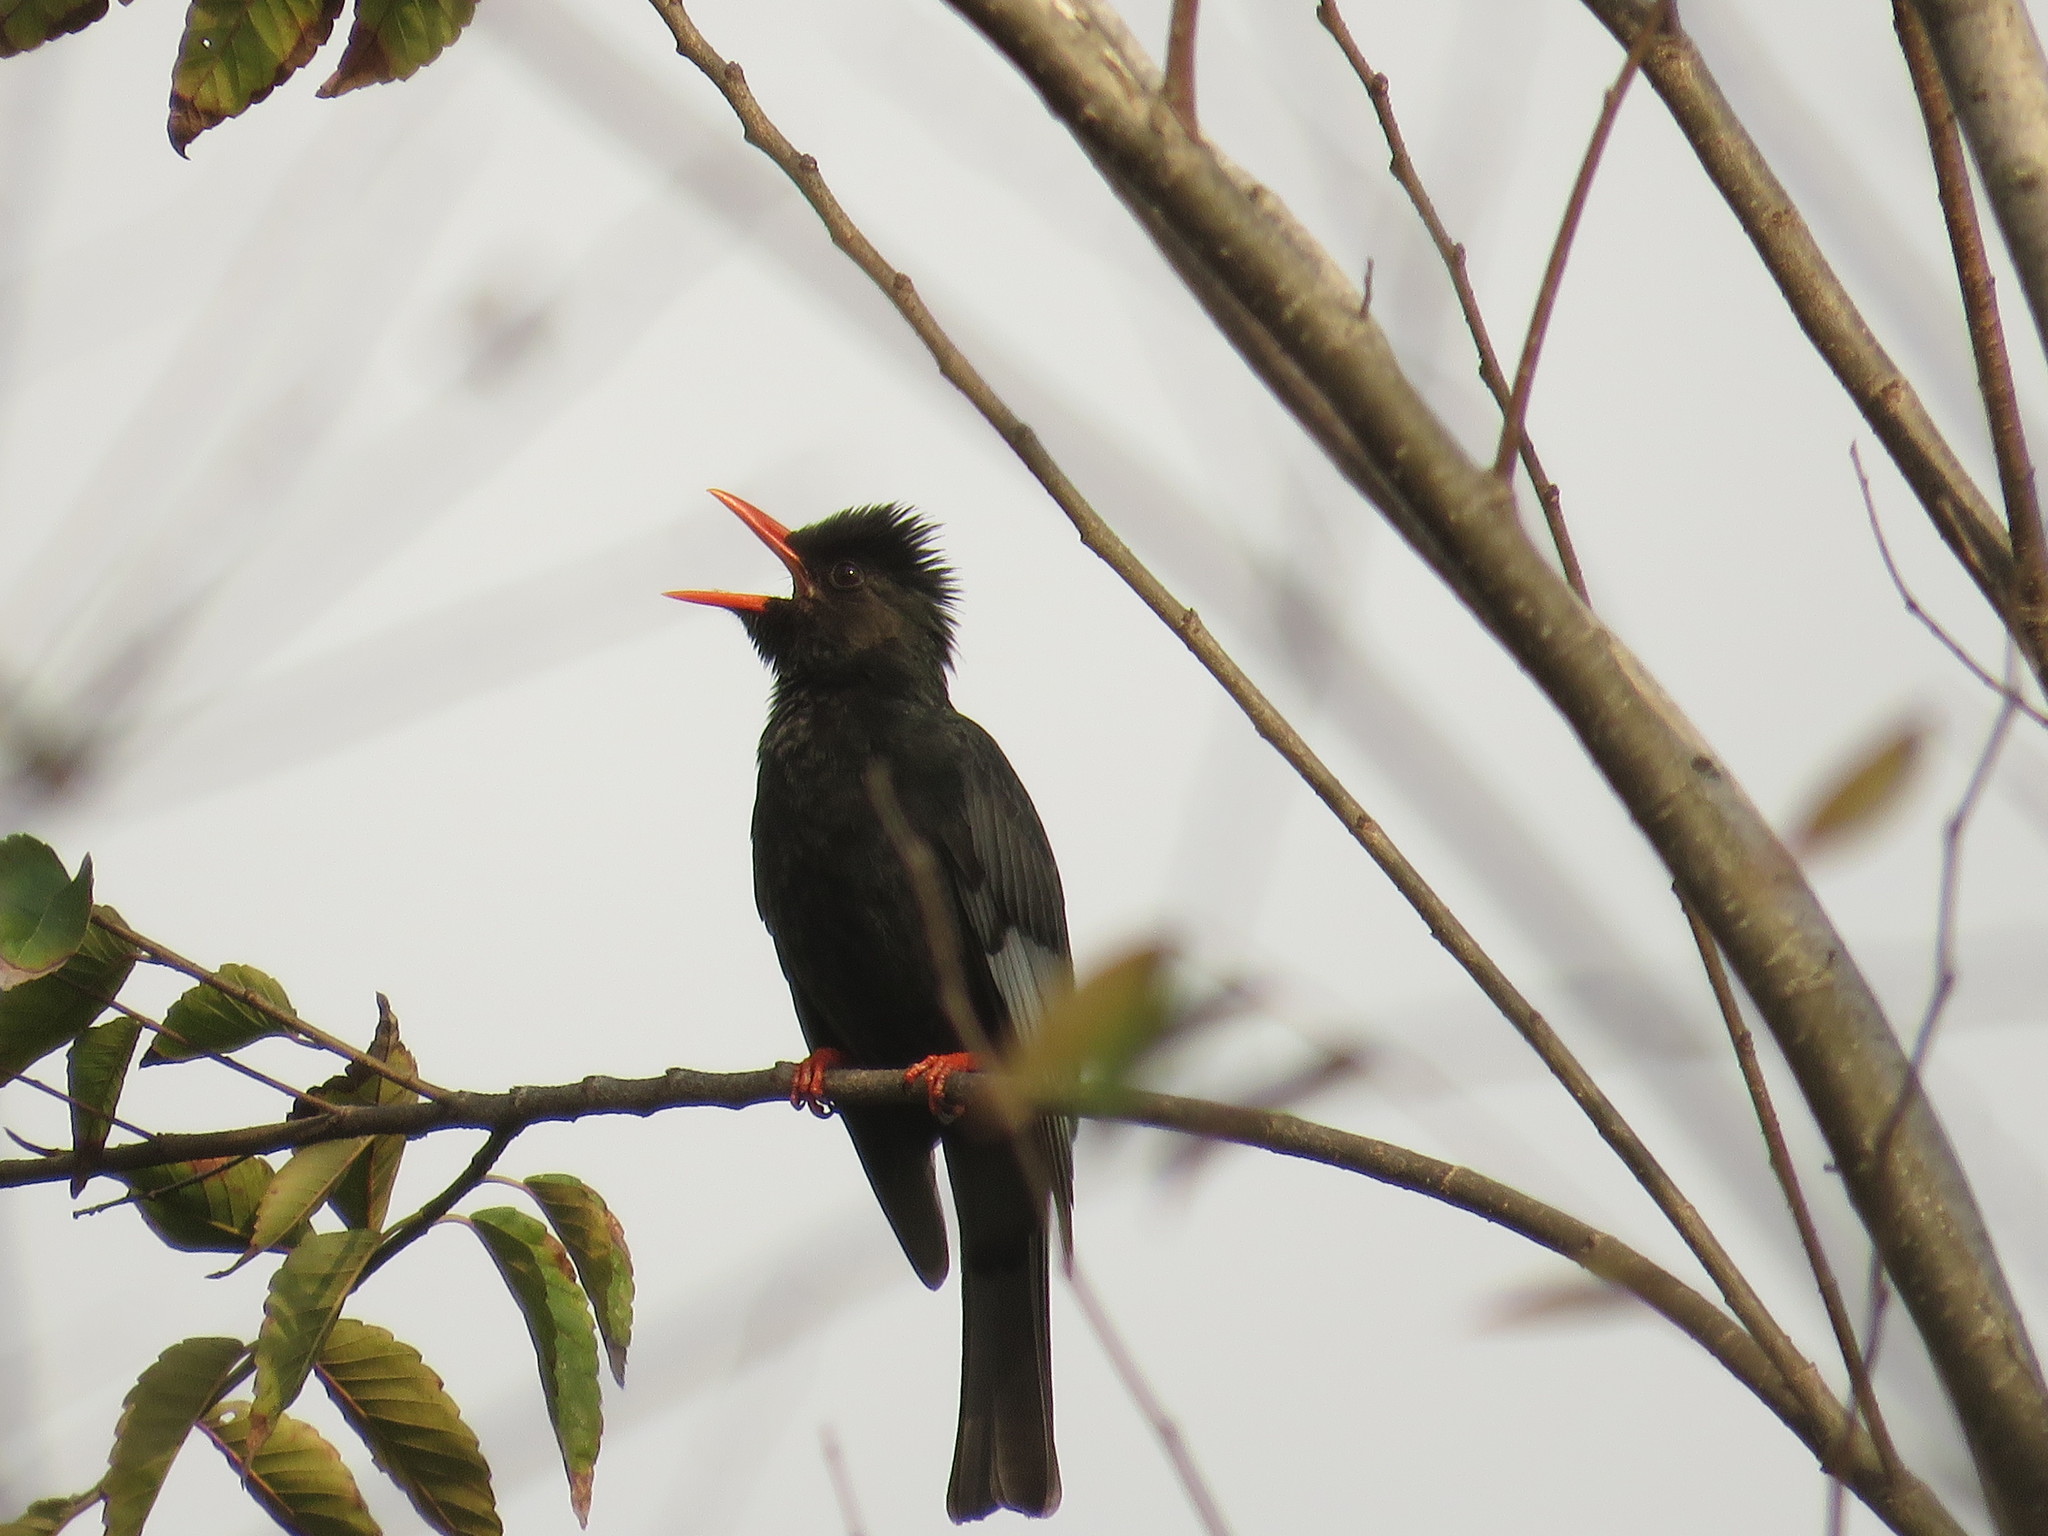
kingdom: Animalia
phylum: Chordata
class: Aves
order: Passeriformes
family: Pycnonotidae
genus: Hypsipetes
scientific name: Hypsipetes leucocephalus
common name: Black bulbul
